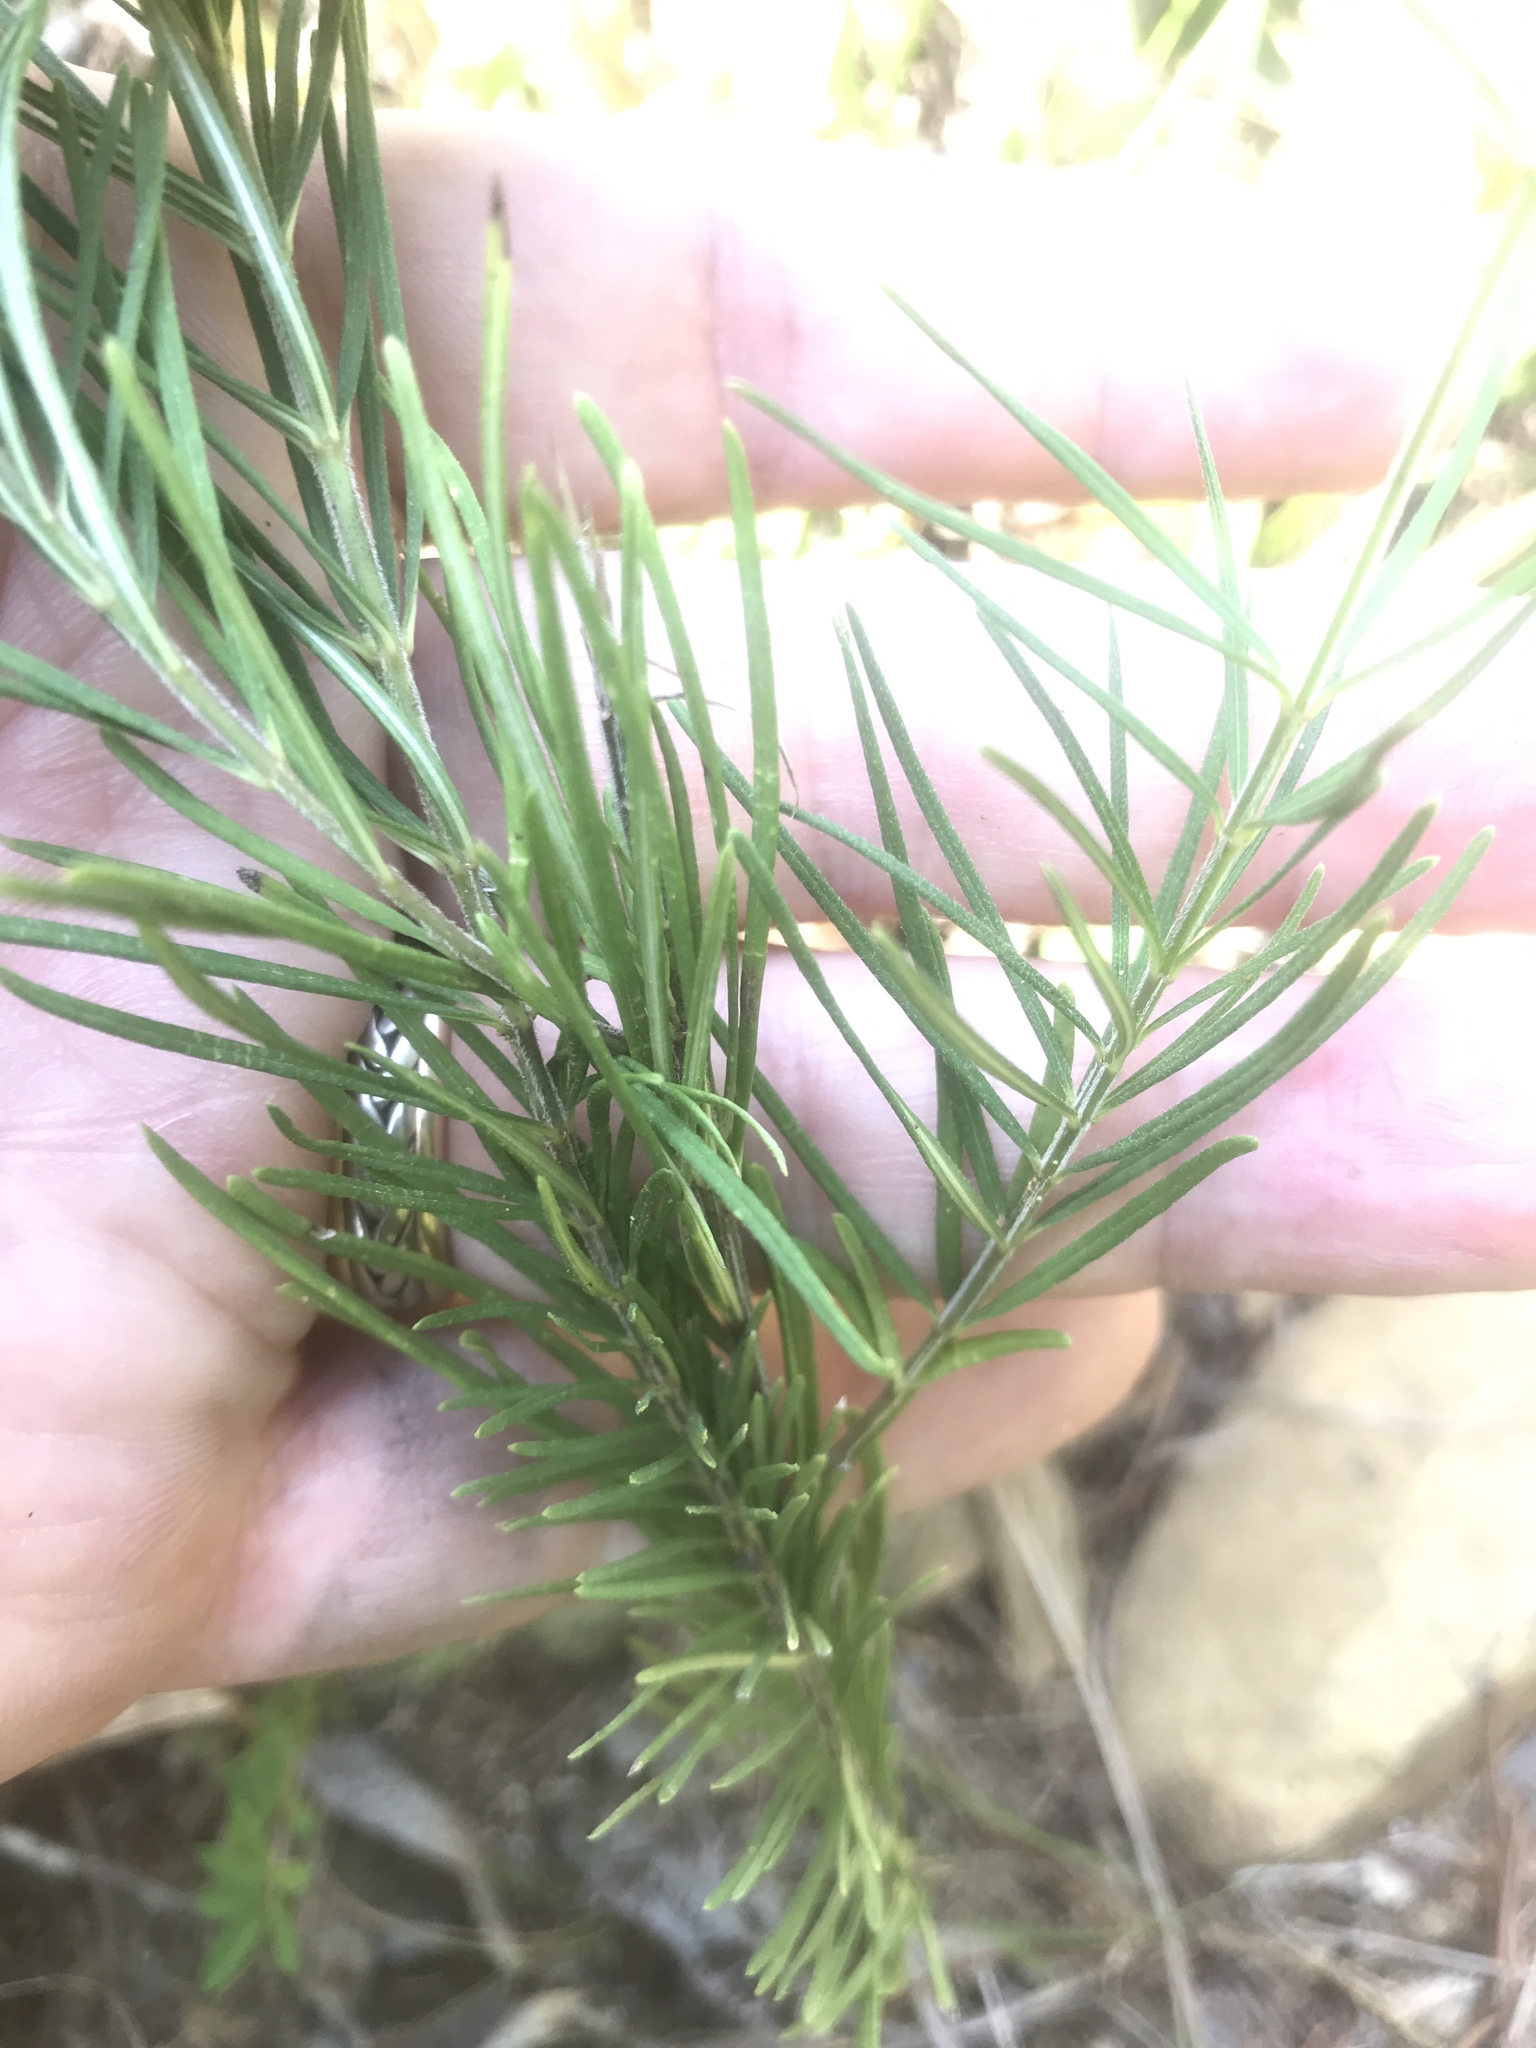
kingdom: Plantae
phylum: Tracheophyta
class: Magnoliopsida
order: Gentianales
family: Apocynaceae
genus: Asclepias
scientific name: Asclepias verticillata
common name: Eastern whorled milkweed
